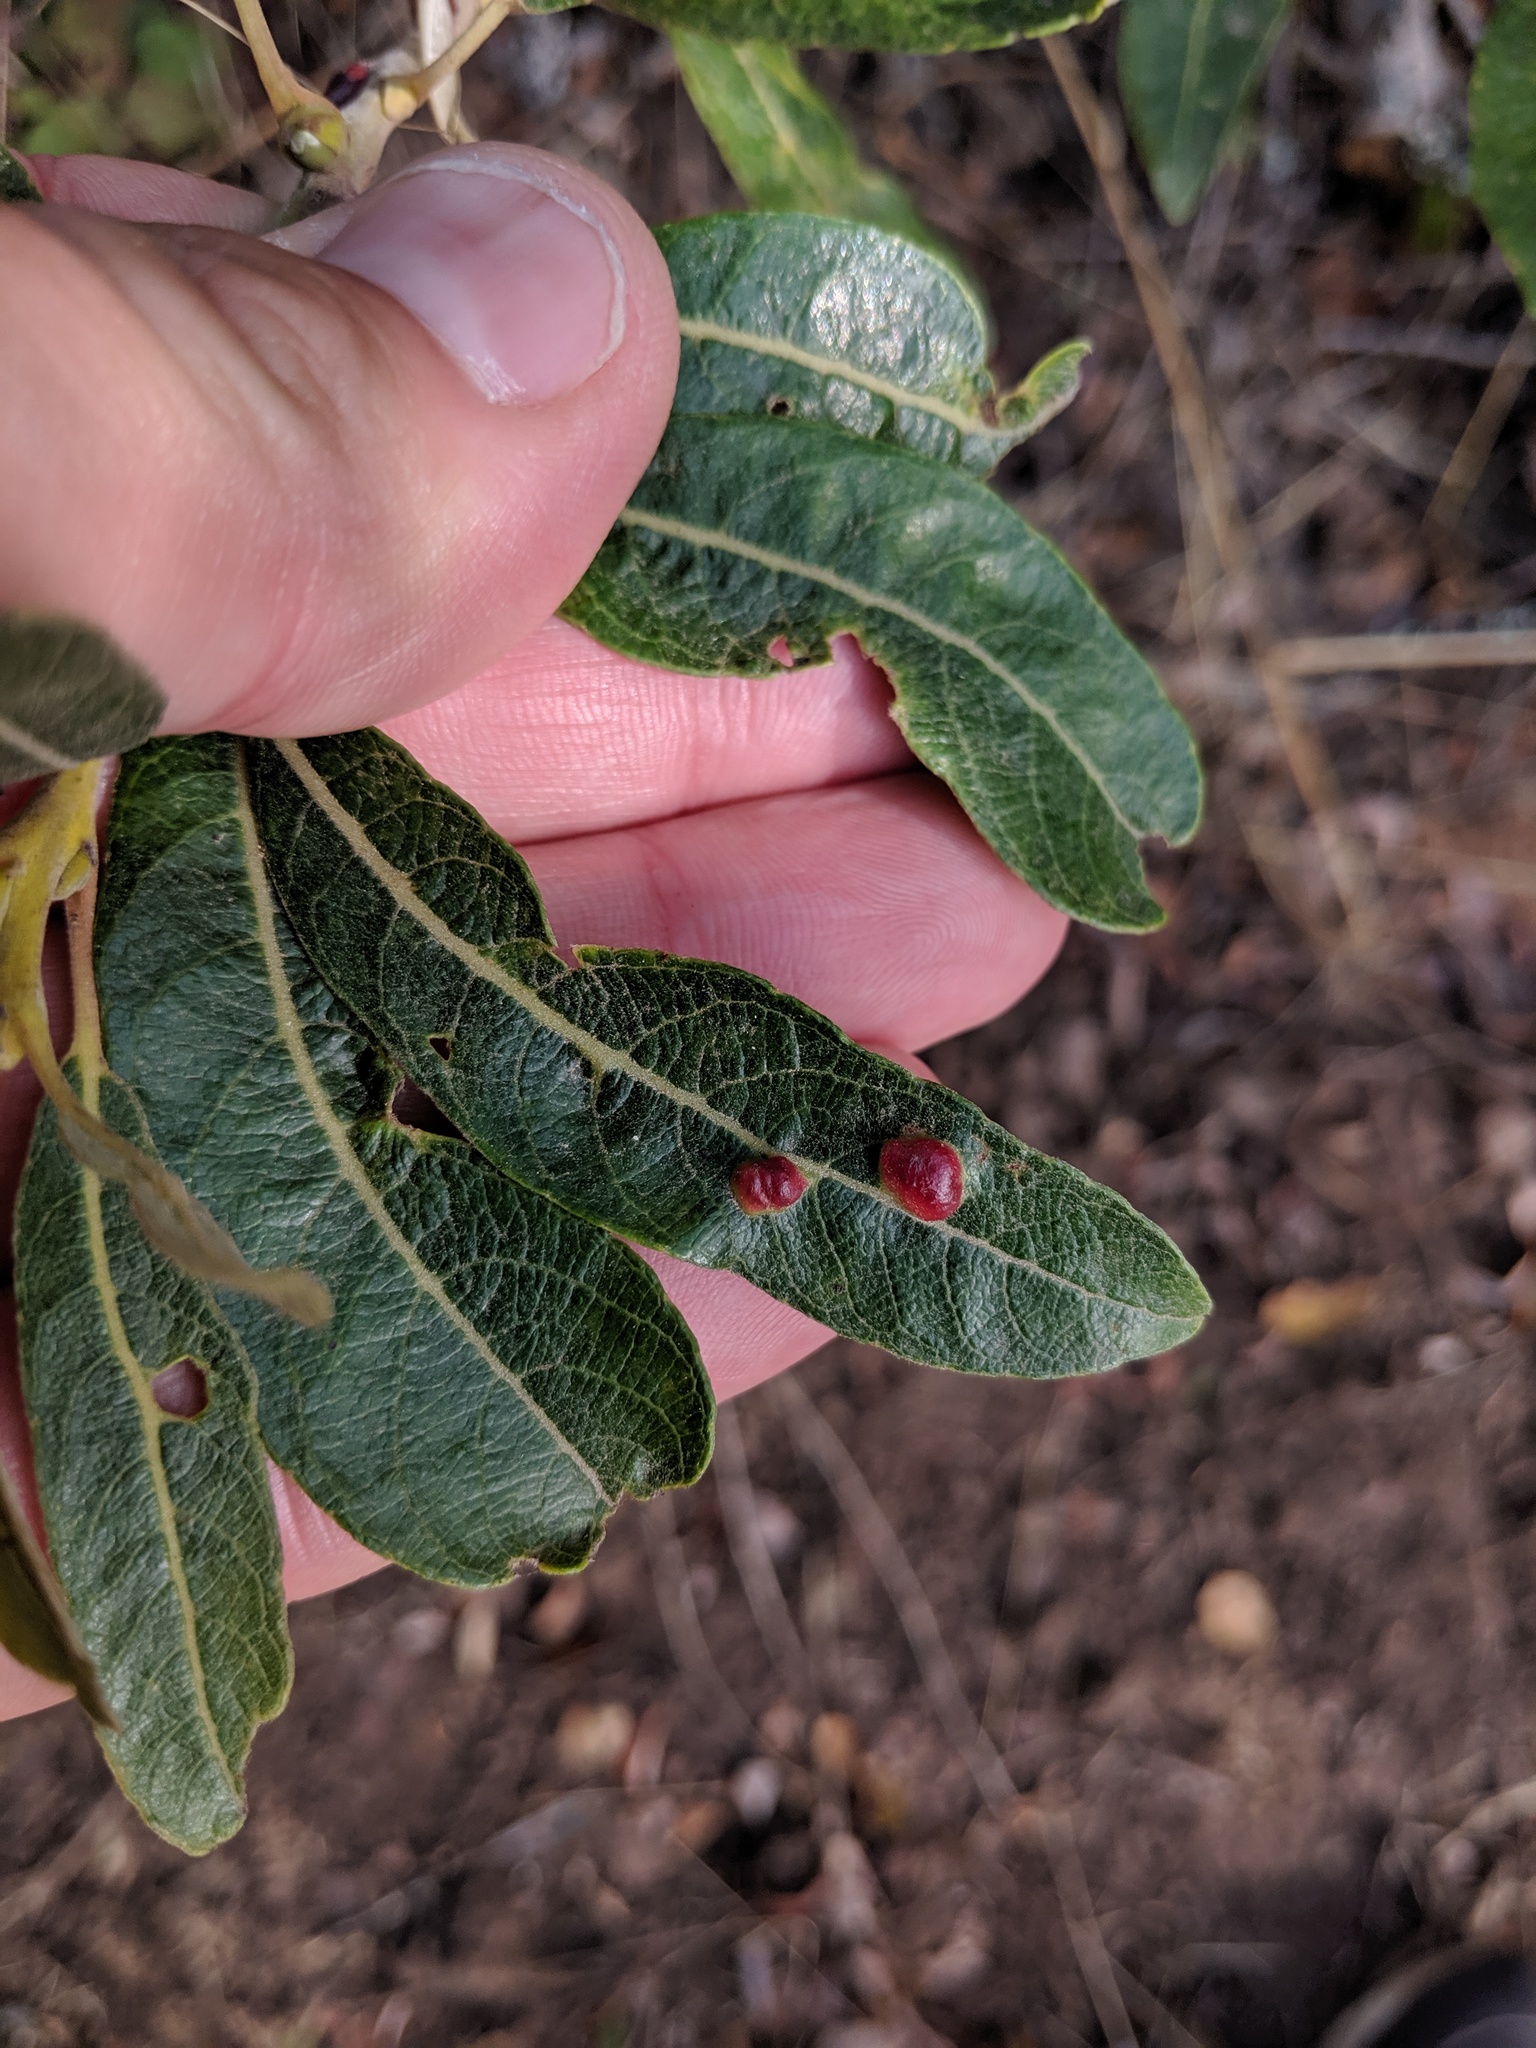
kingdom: Animalia
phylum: Arthropoda
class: Insecta
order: Hymenoptera
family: Tenthredinidae
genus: Euura
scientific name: Euura
